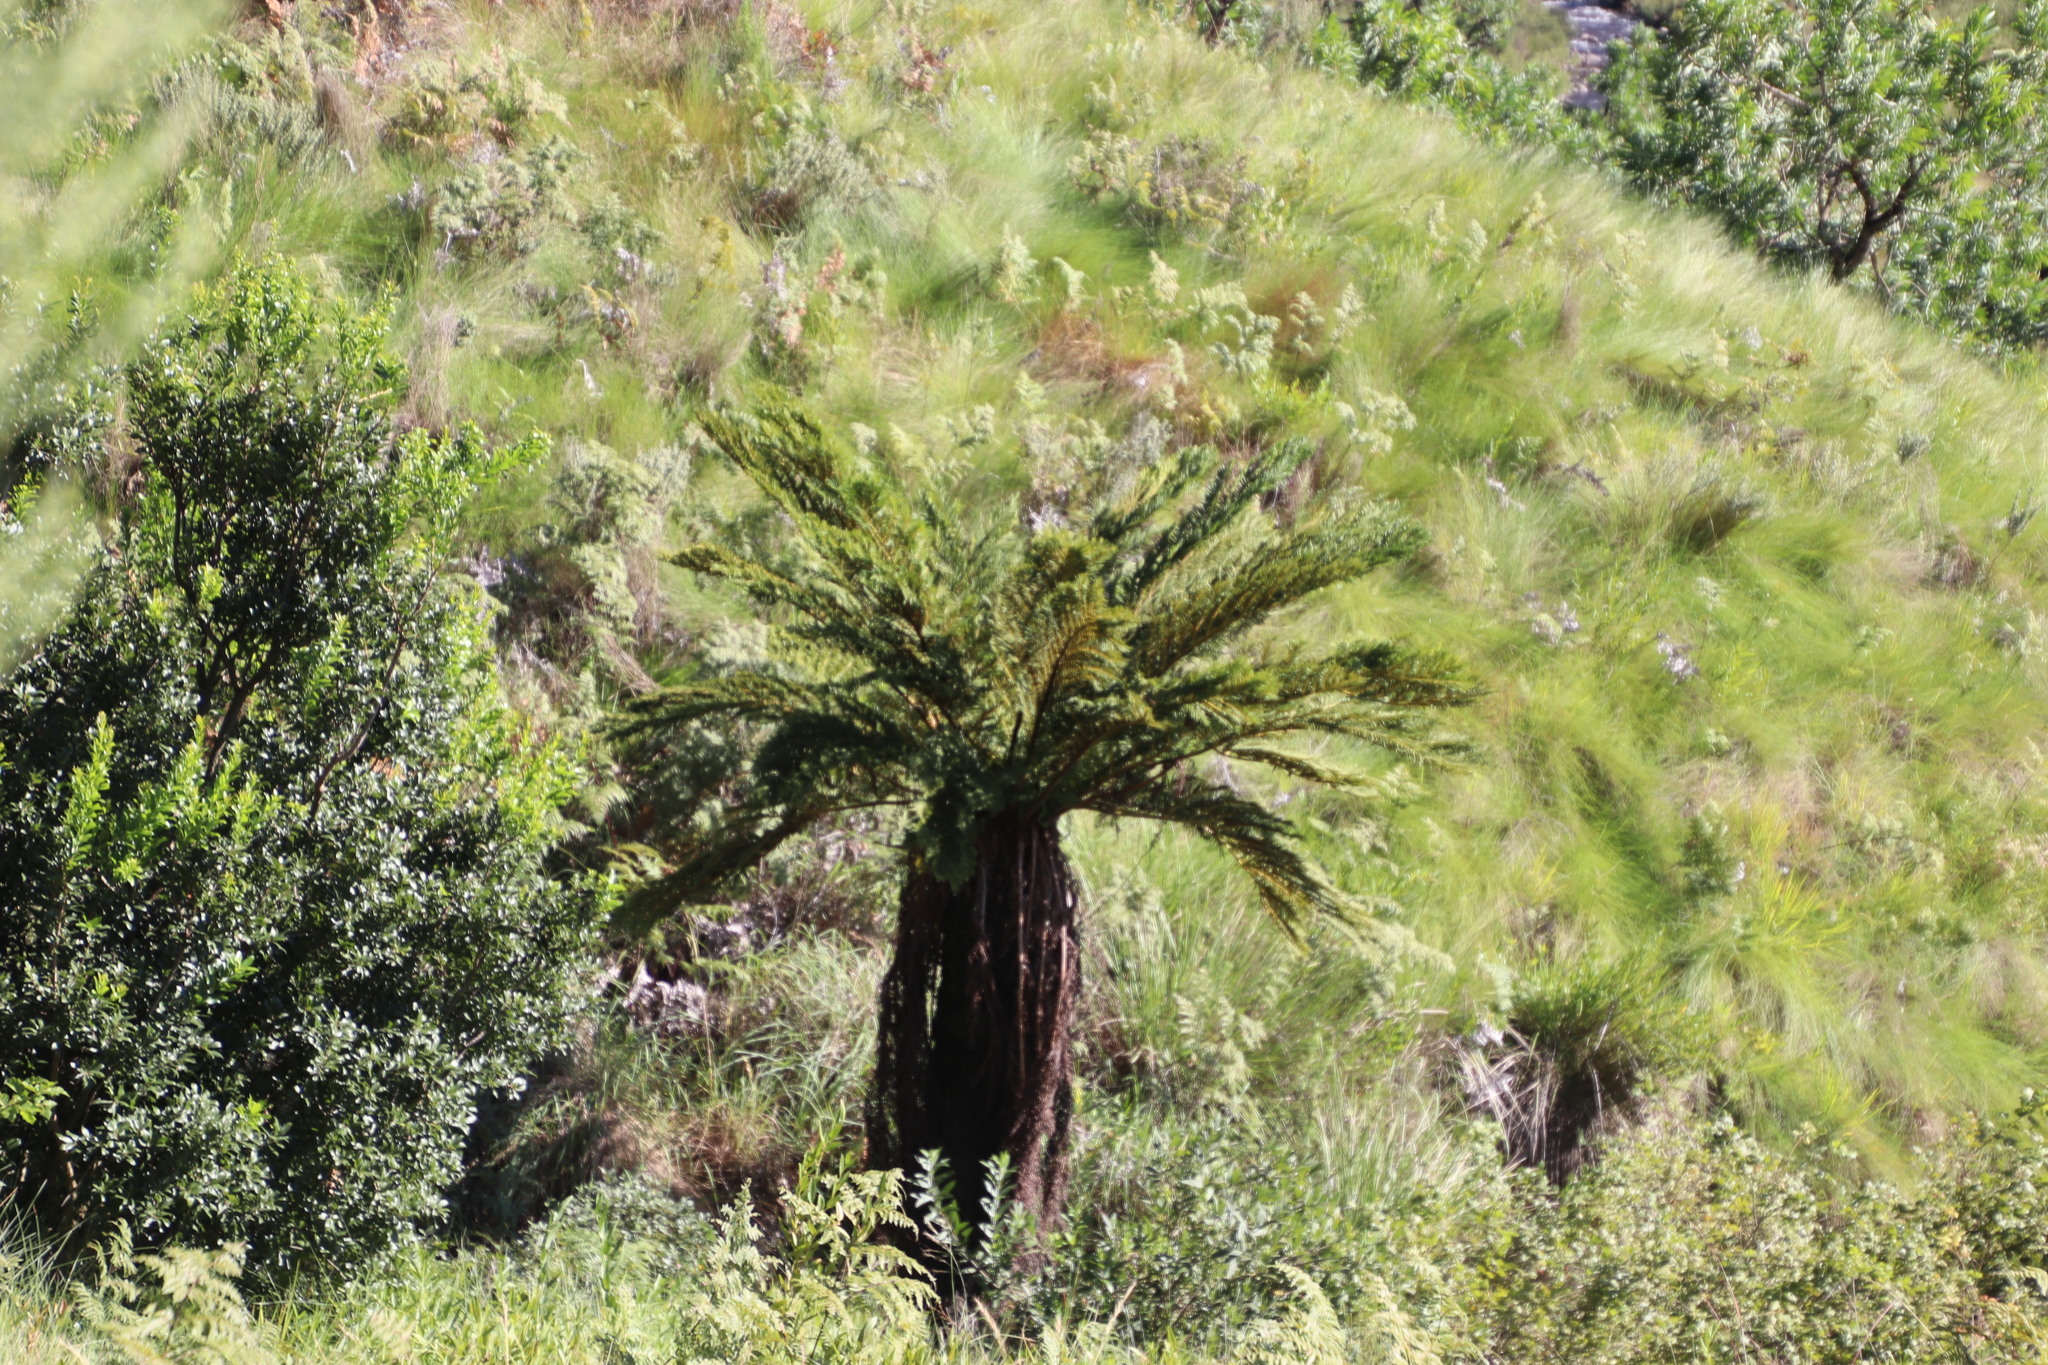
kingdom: Plantae
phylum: Tracheophyta
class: Polypodiopsida
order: Cyatheales
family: Cyatheaceae
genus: Alsophila
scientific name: Alsophila dregei
